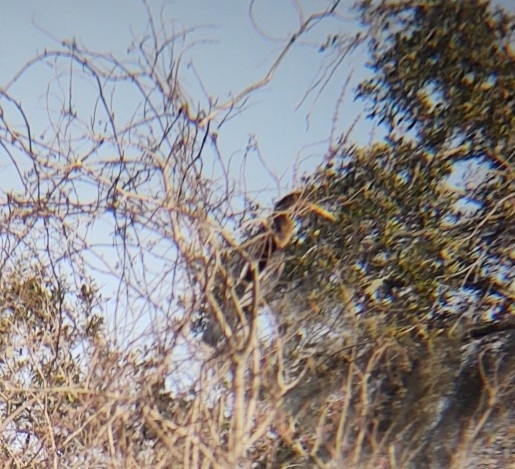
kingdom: Animalia
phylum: Chordata
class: Aves
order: Suliformes
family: Anhingidae
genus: Anhinga
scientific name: Anhinga anhinga
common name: Anhinga
